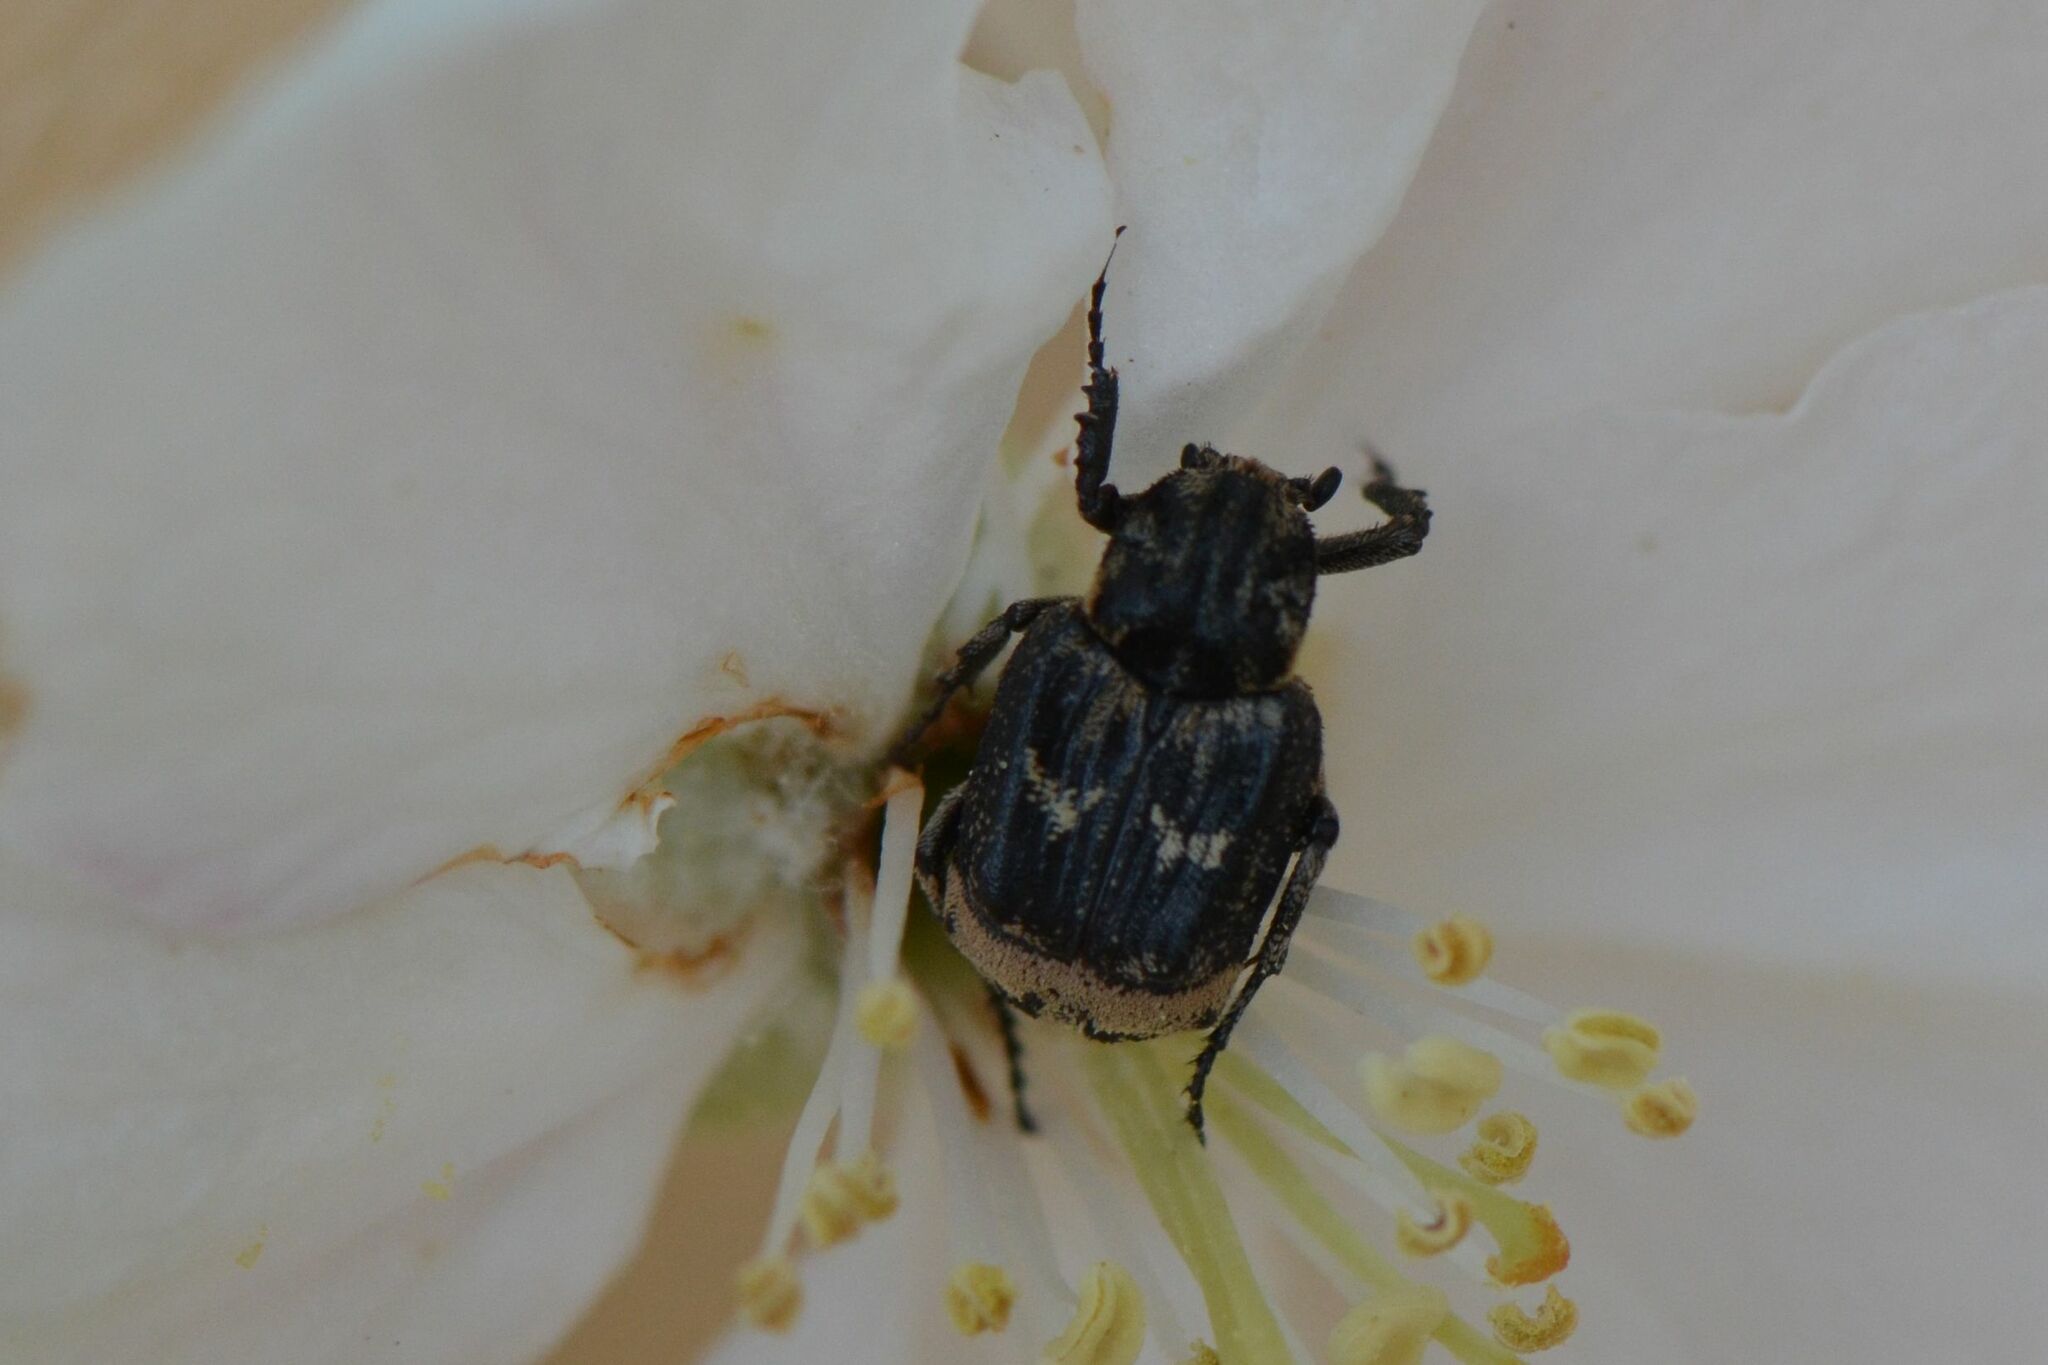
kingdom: Animalia
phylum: Arthropoda
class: Insecta
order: Coleoptera
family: Scarabaeidae
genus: Valgus
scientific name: Valgus hemipterus
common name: Bug flower chafer
